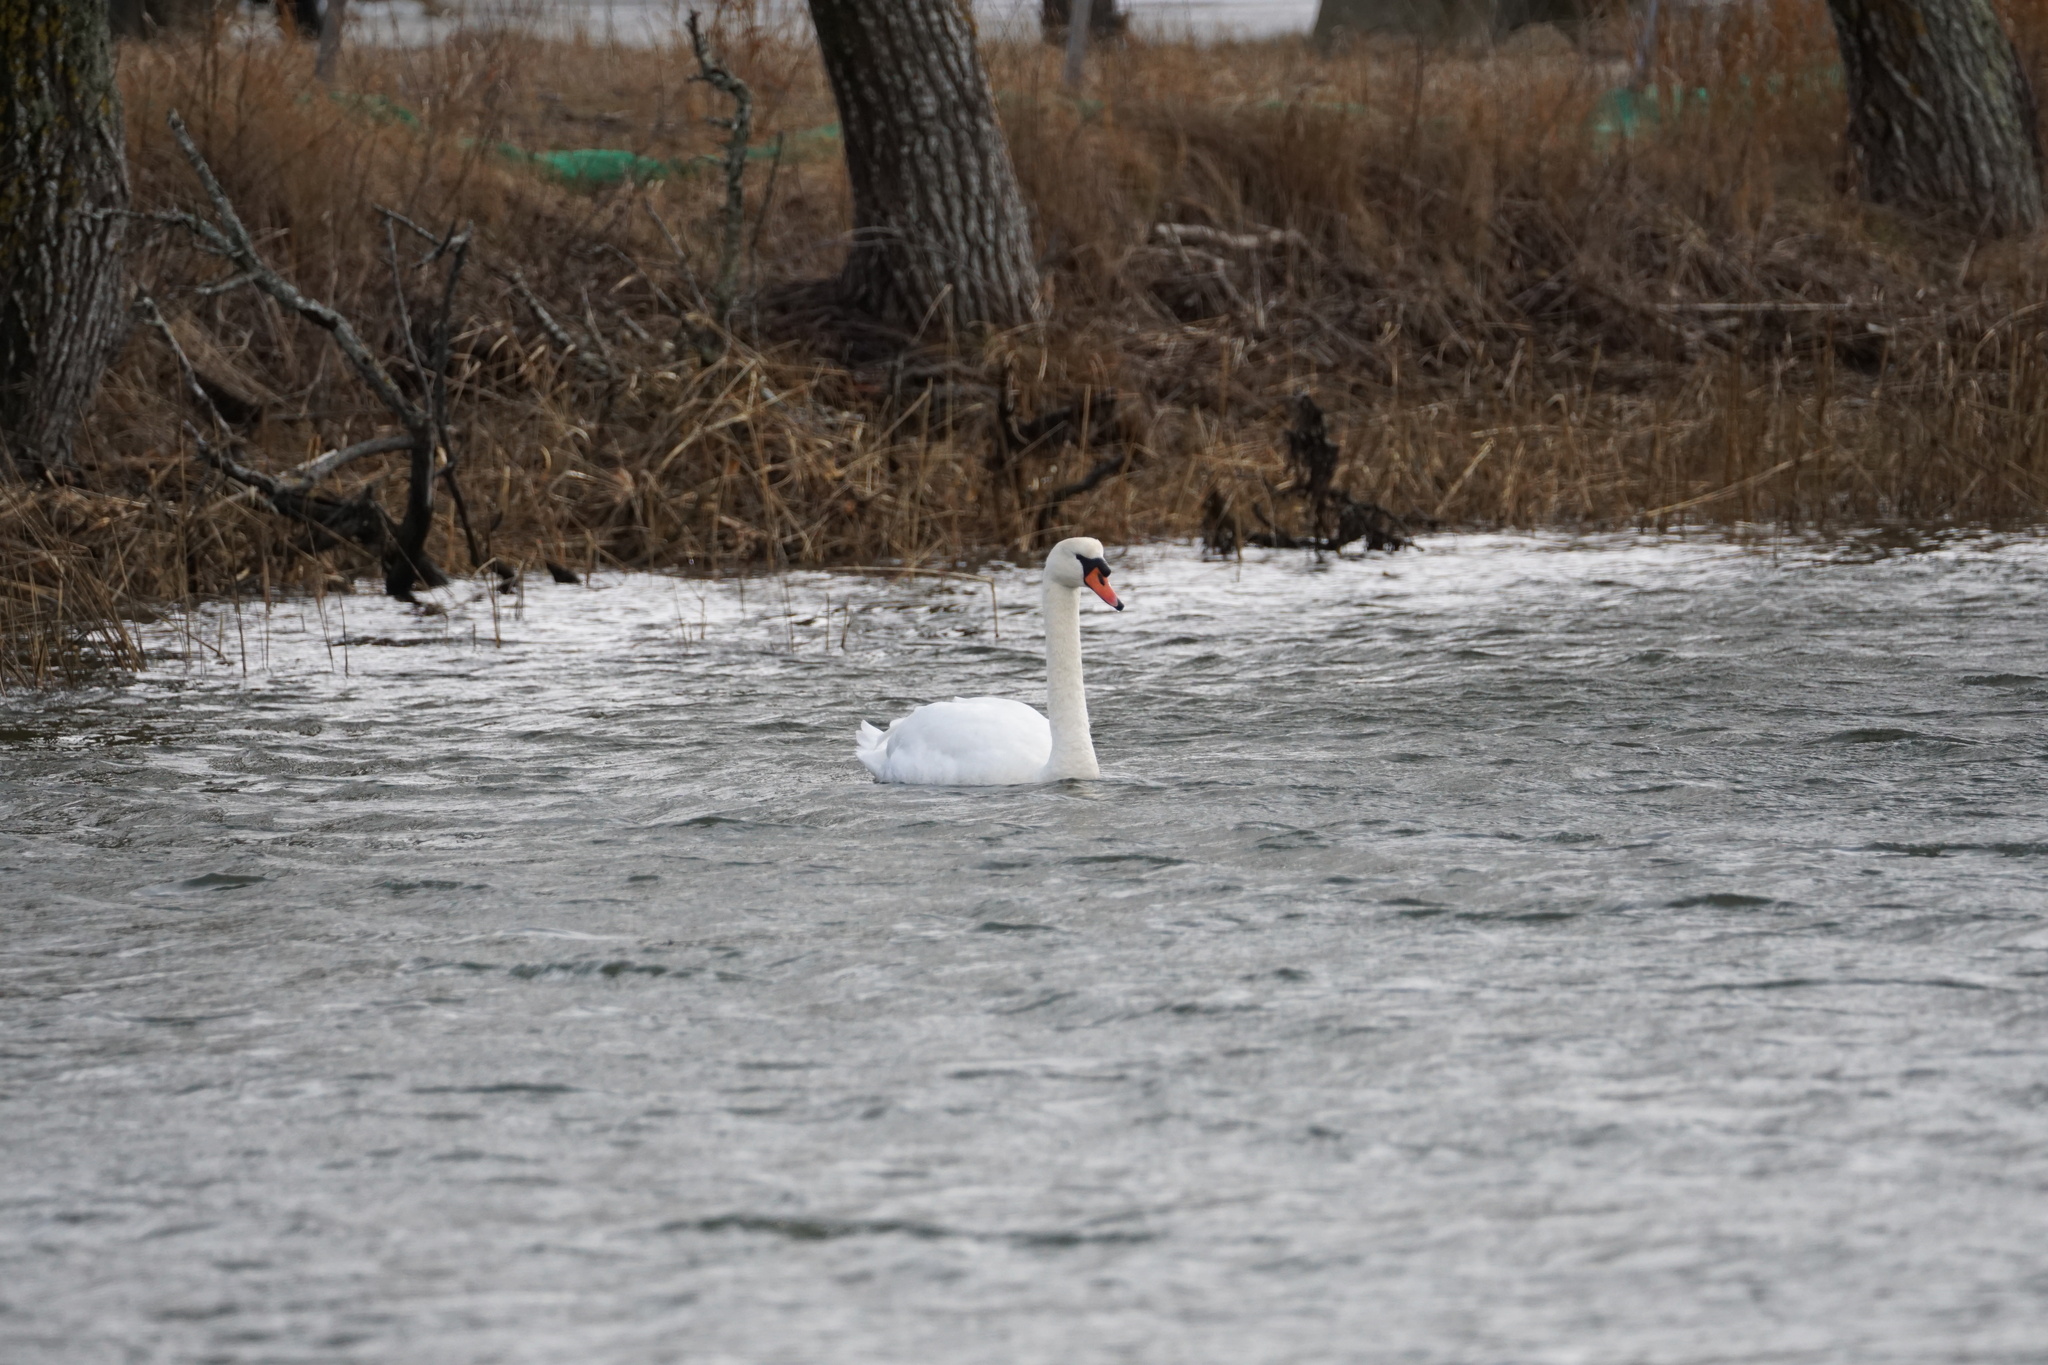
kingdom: Animalia
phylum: Chordata
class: Aves
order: Anseriformes
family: Anatidae
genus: Cygnus
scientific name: Cygnus olor
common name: Mute swan
